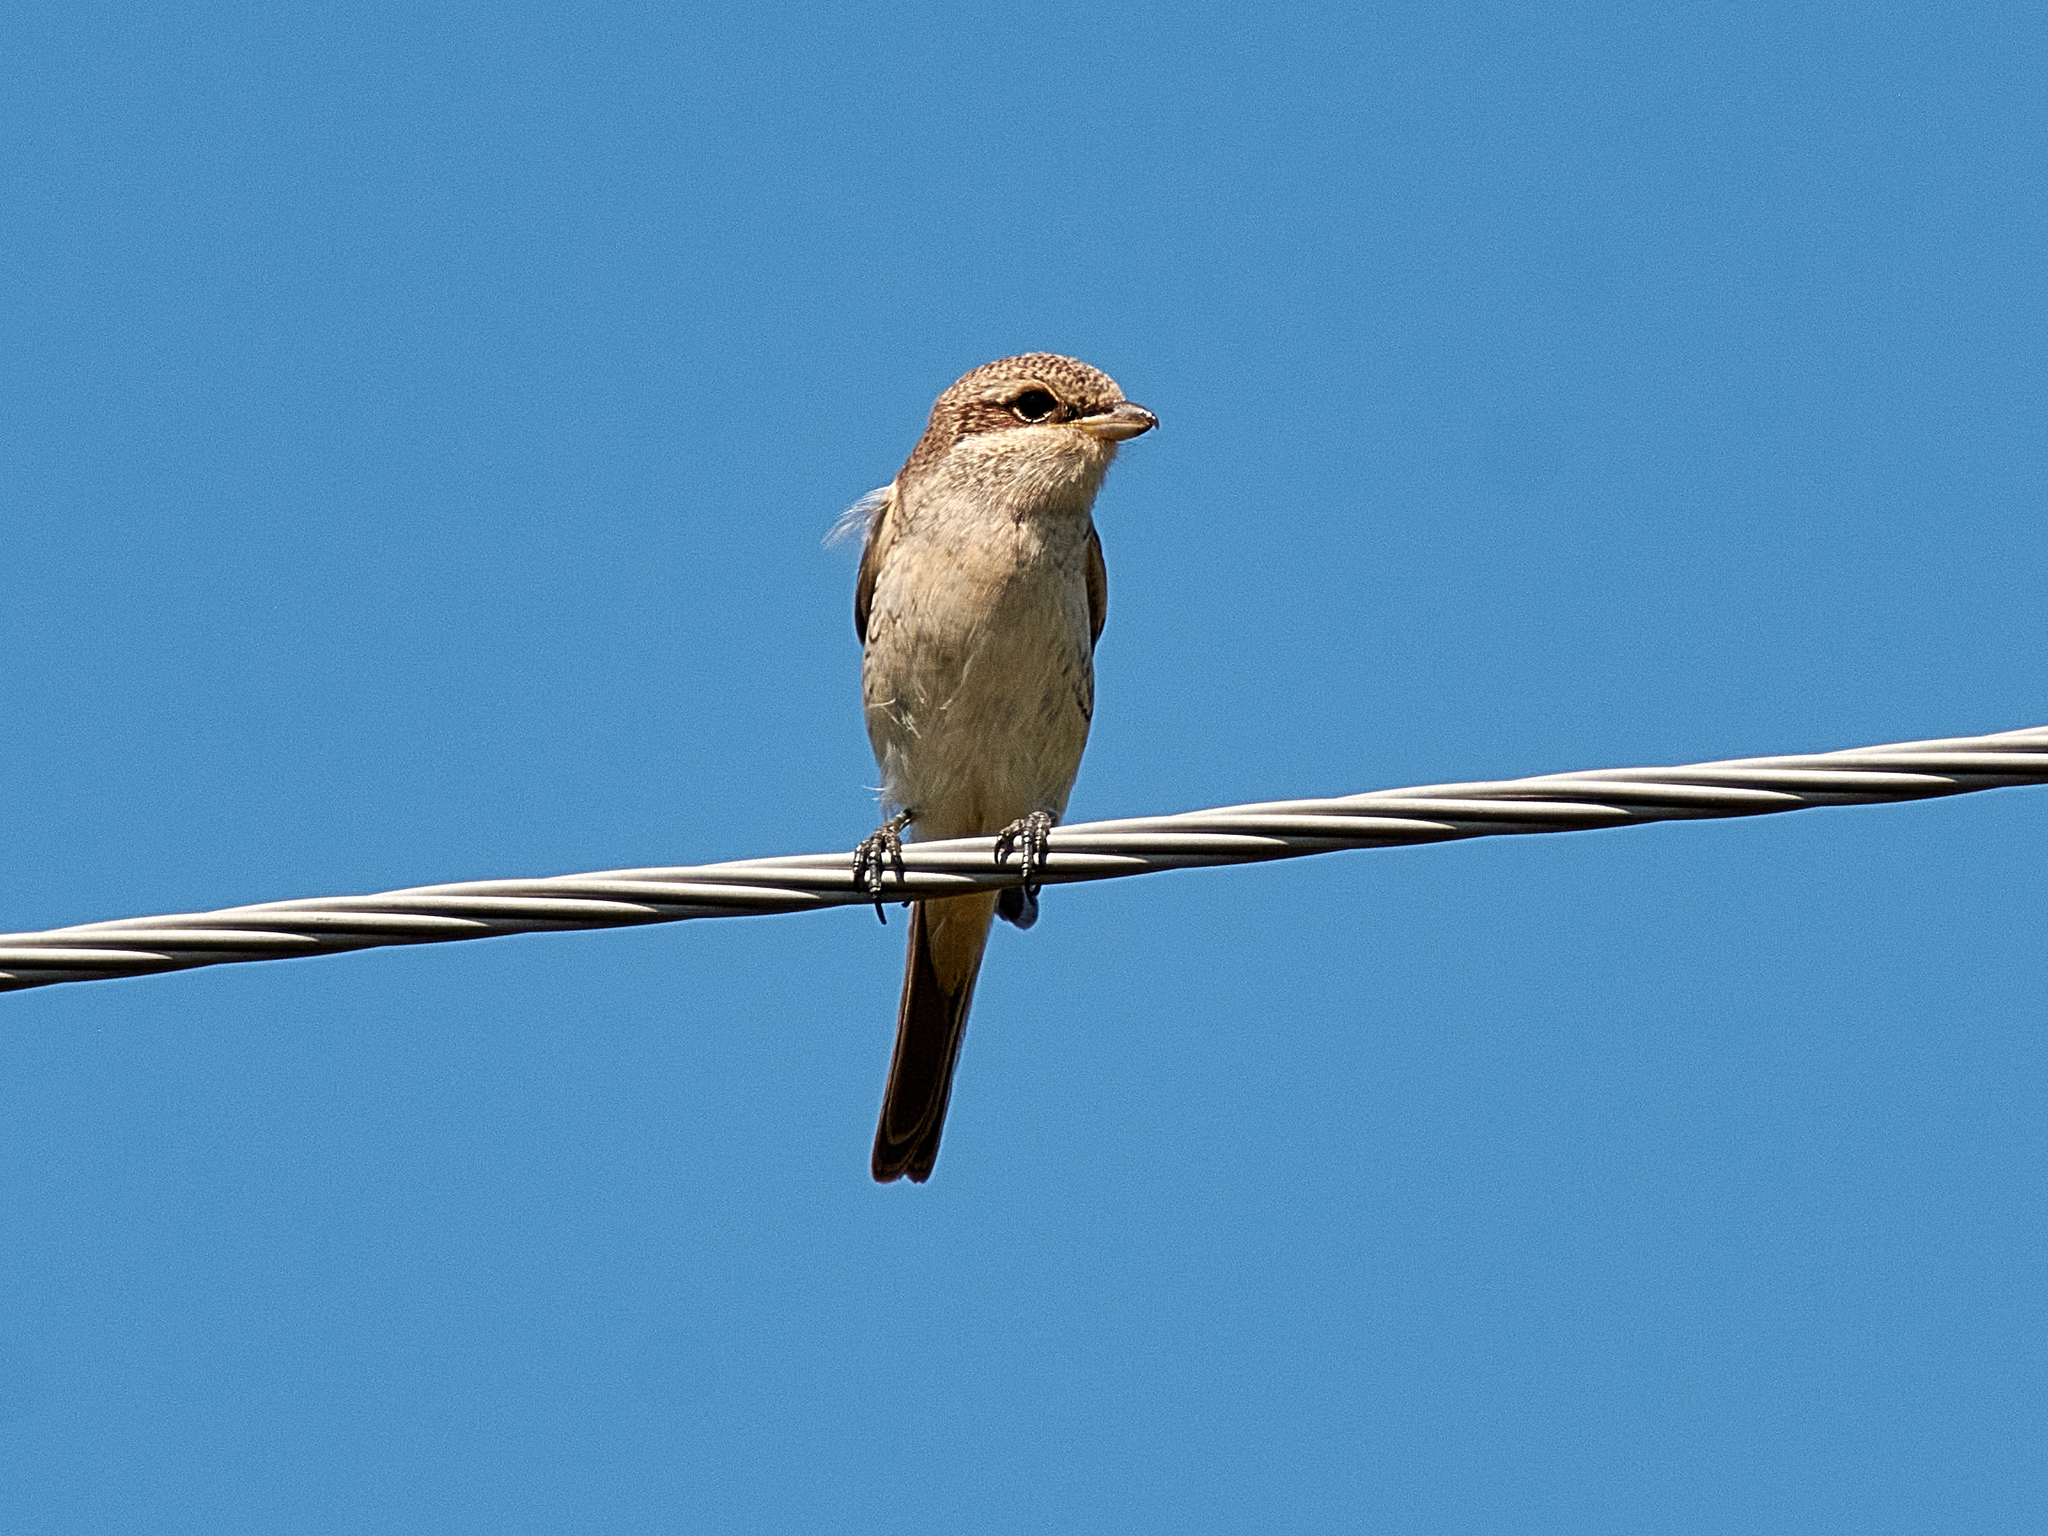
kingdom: Animalia
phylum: Chordata
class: Aves
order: Passeriformes
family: Laniidae
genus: Lanius
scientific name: Lanius collurio
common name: Red-backed shrike
